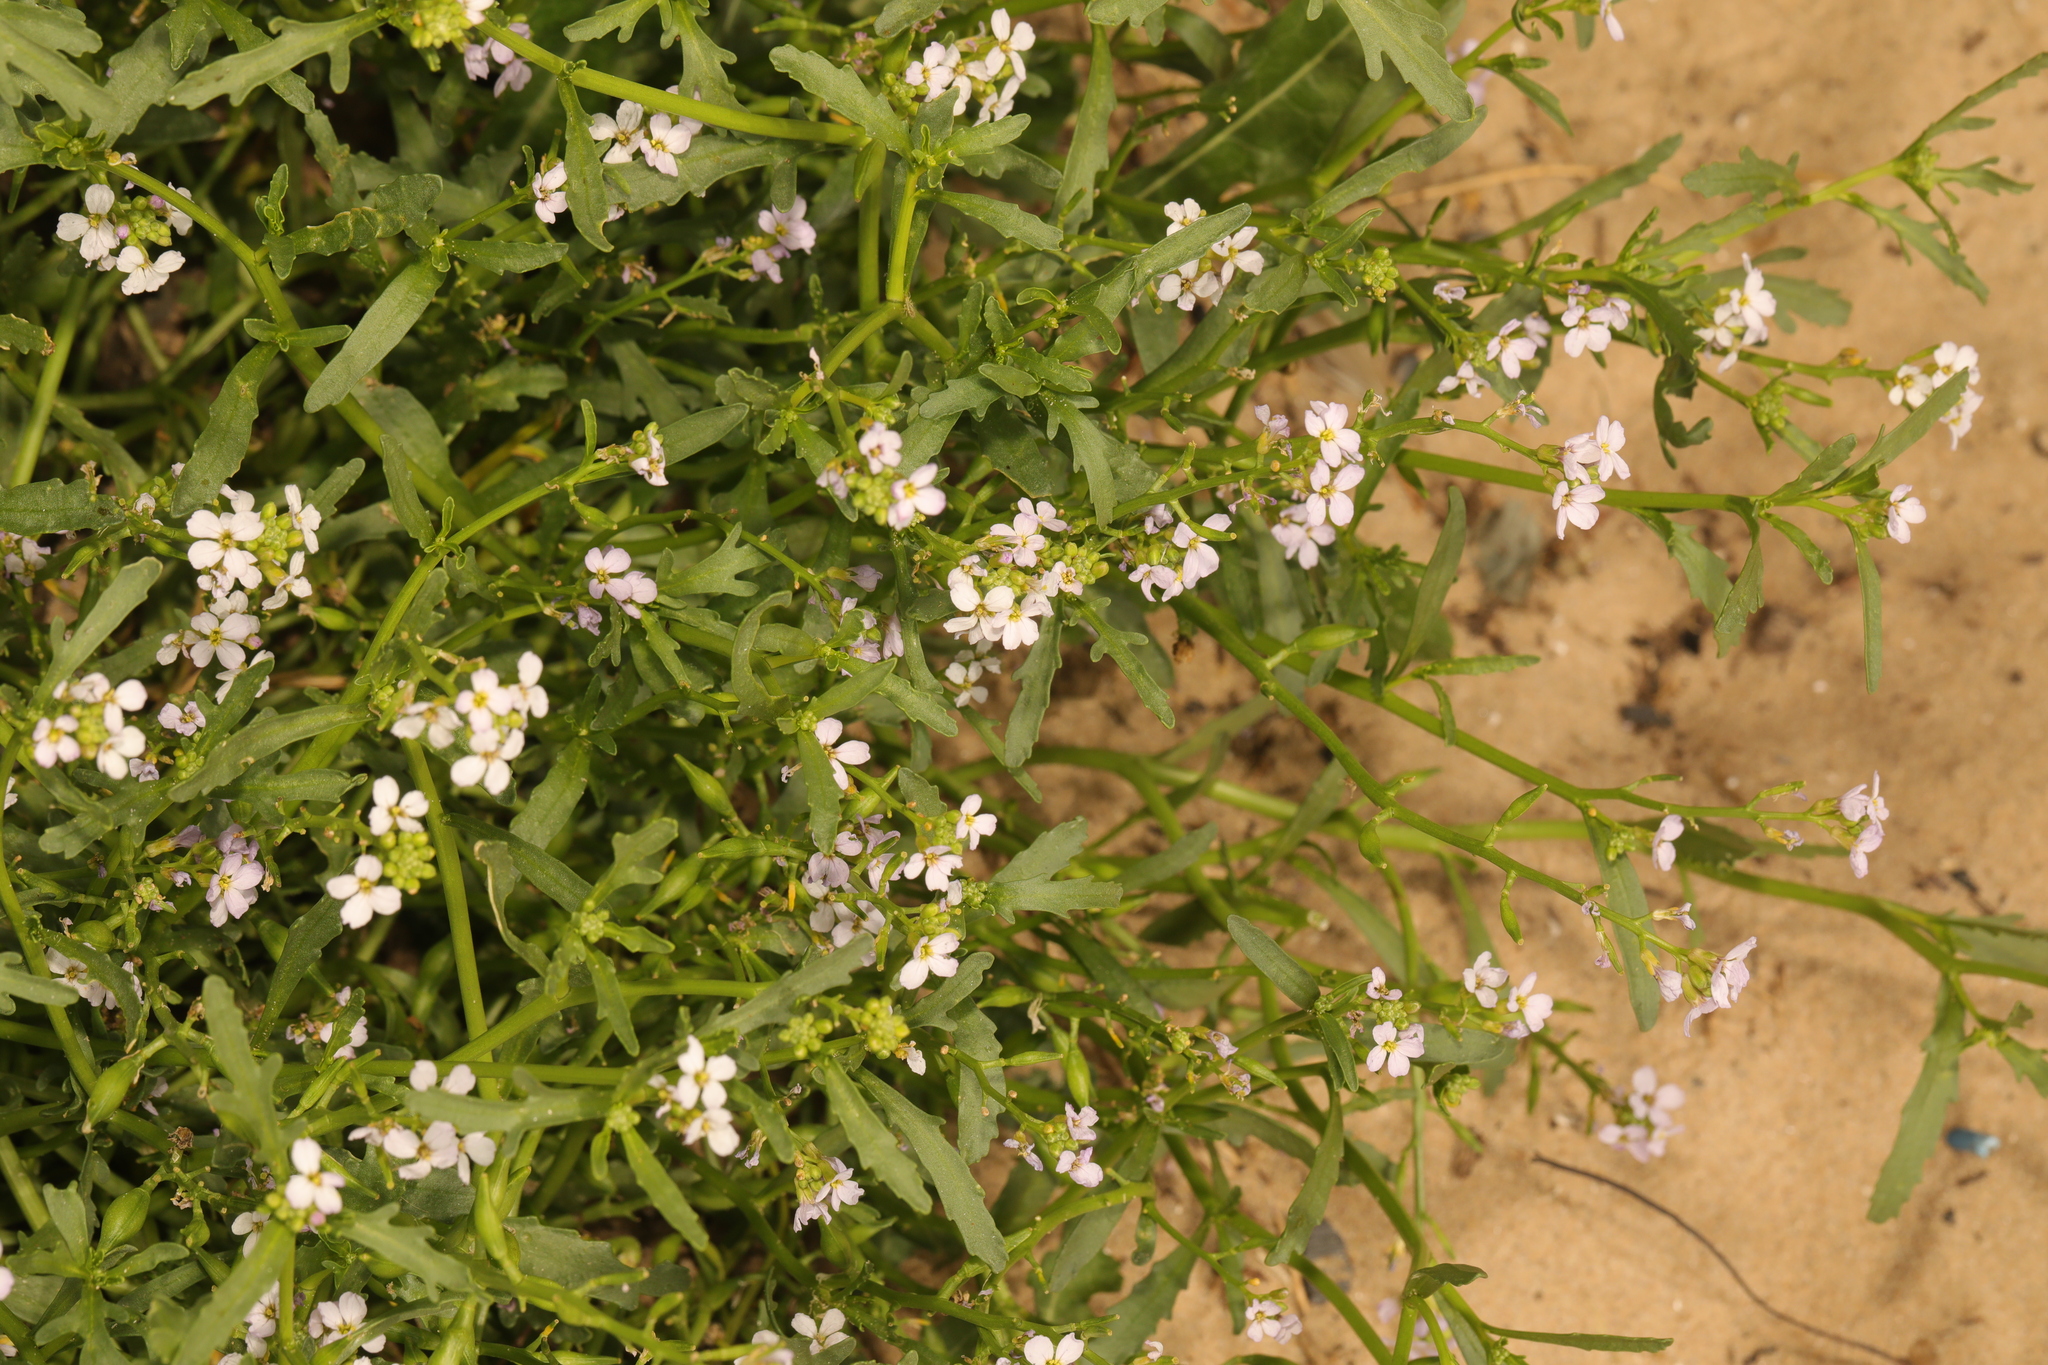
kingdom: Plantae
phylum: Tracheophyta
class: Magnoliopsida
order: Brassicales
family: Brassicaceae
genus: Cakile
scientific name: Cakile maritima
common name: Sea rocket
